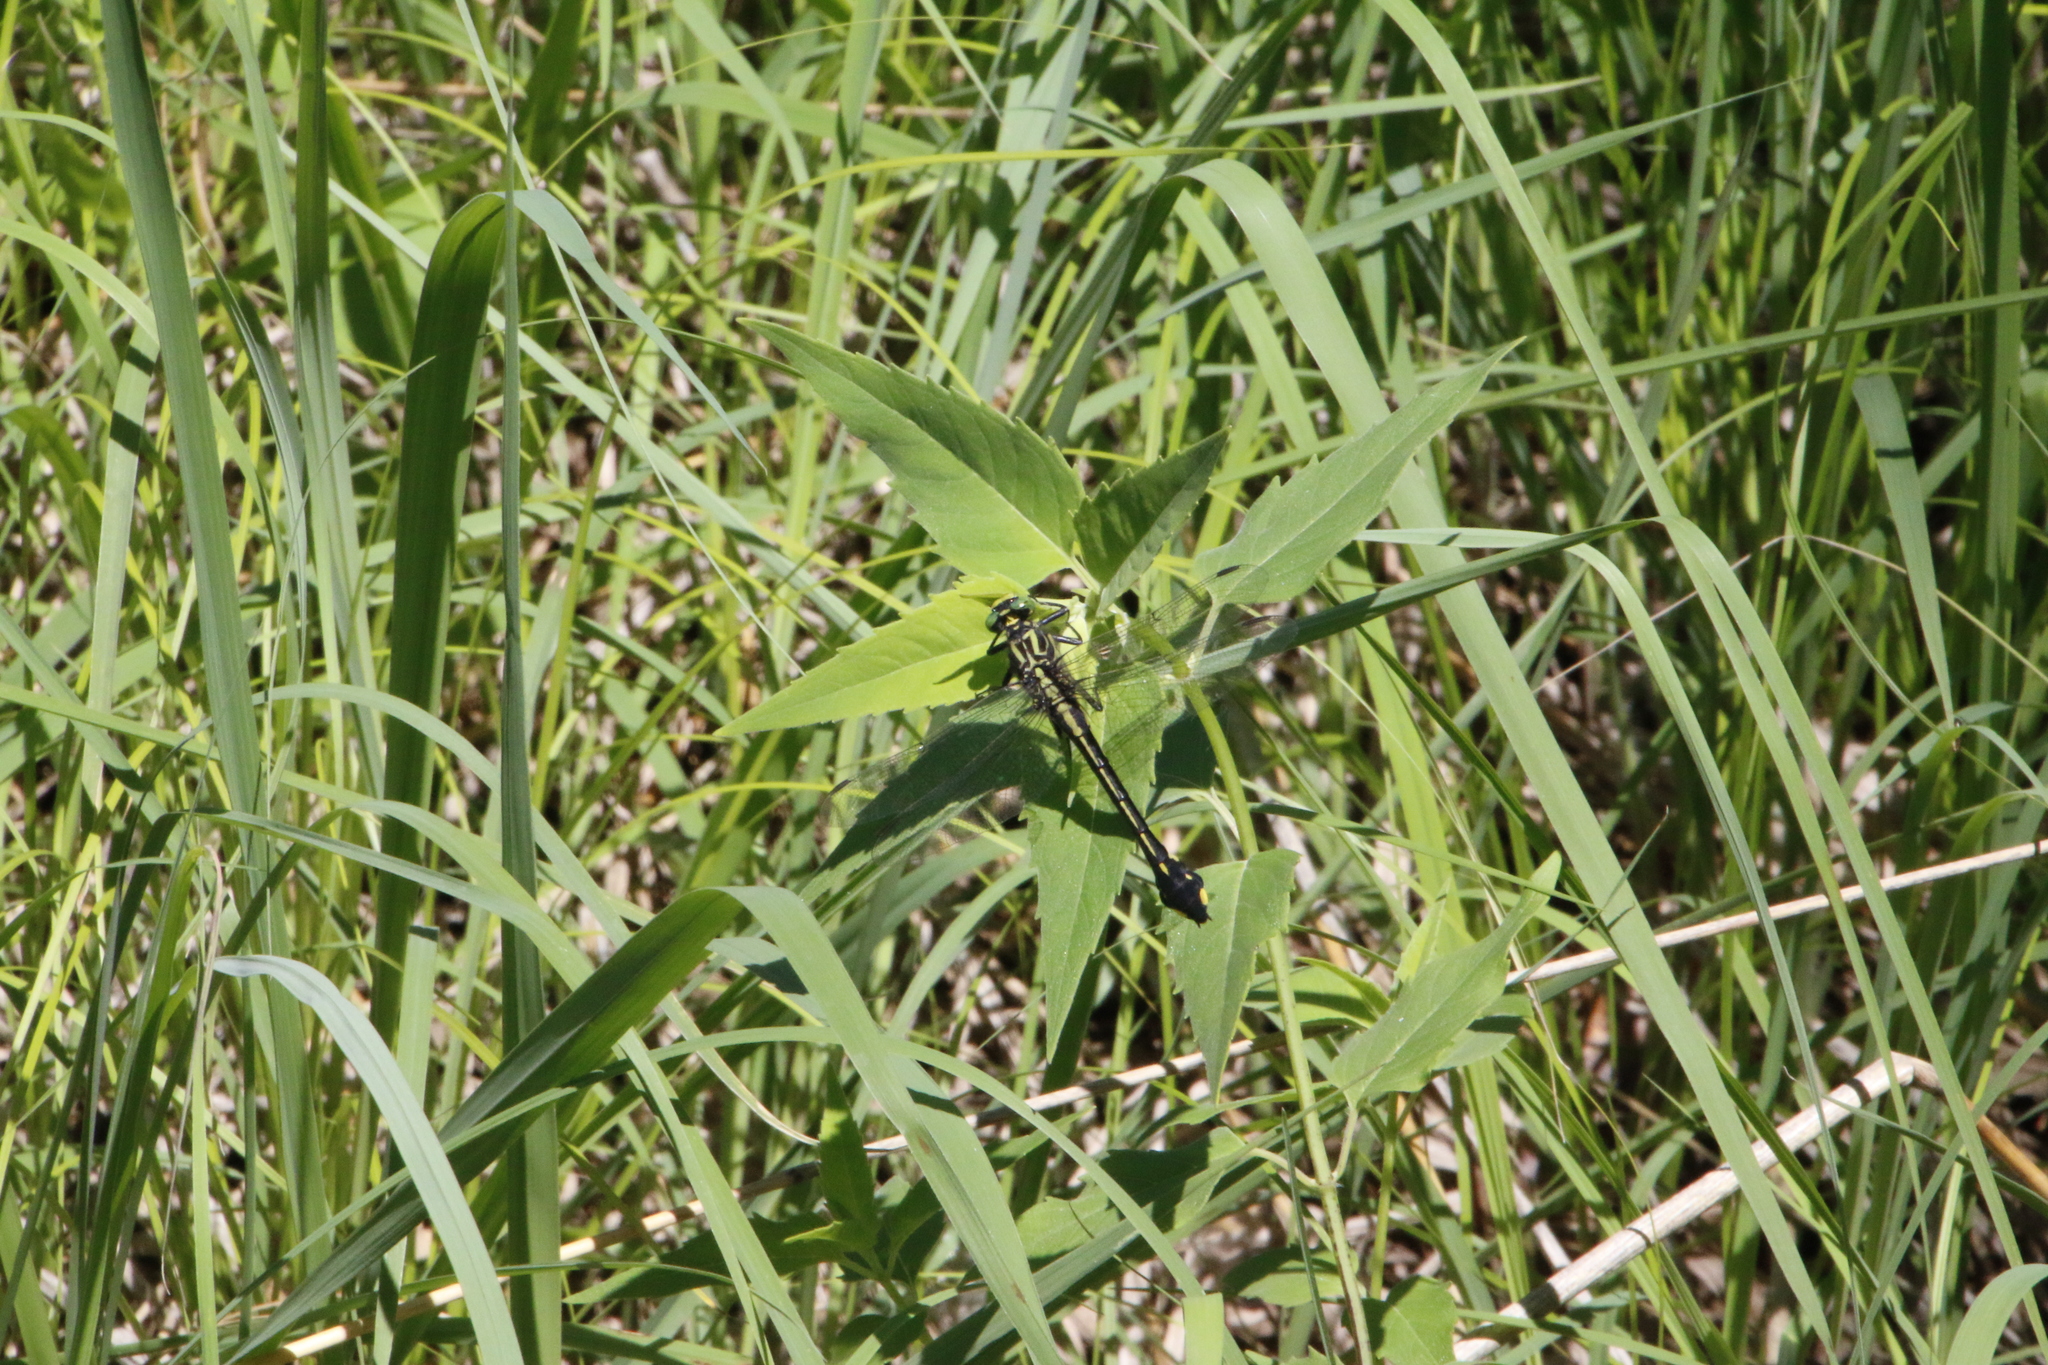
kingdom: Animalia
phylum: Arthropoda
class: Insecta
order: Odonata
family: Gomphidae
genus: Gomphurus
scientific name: Gomphurus vastus
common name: Cobra clubtail
